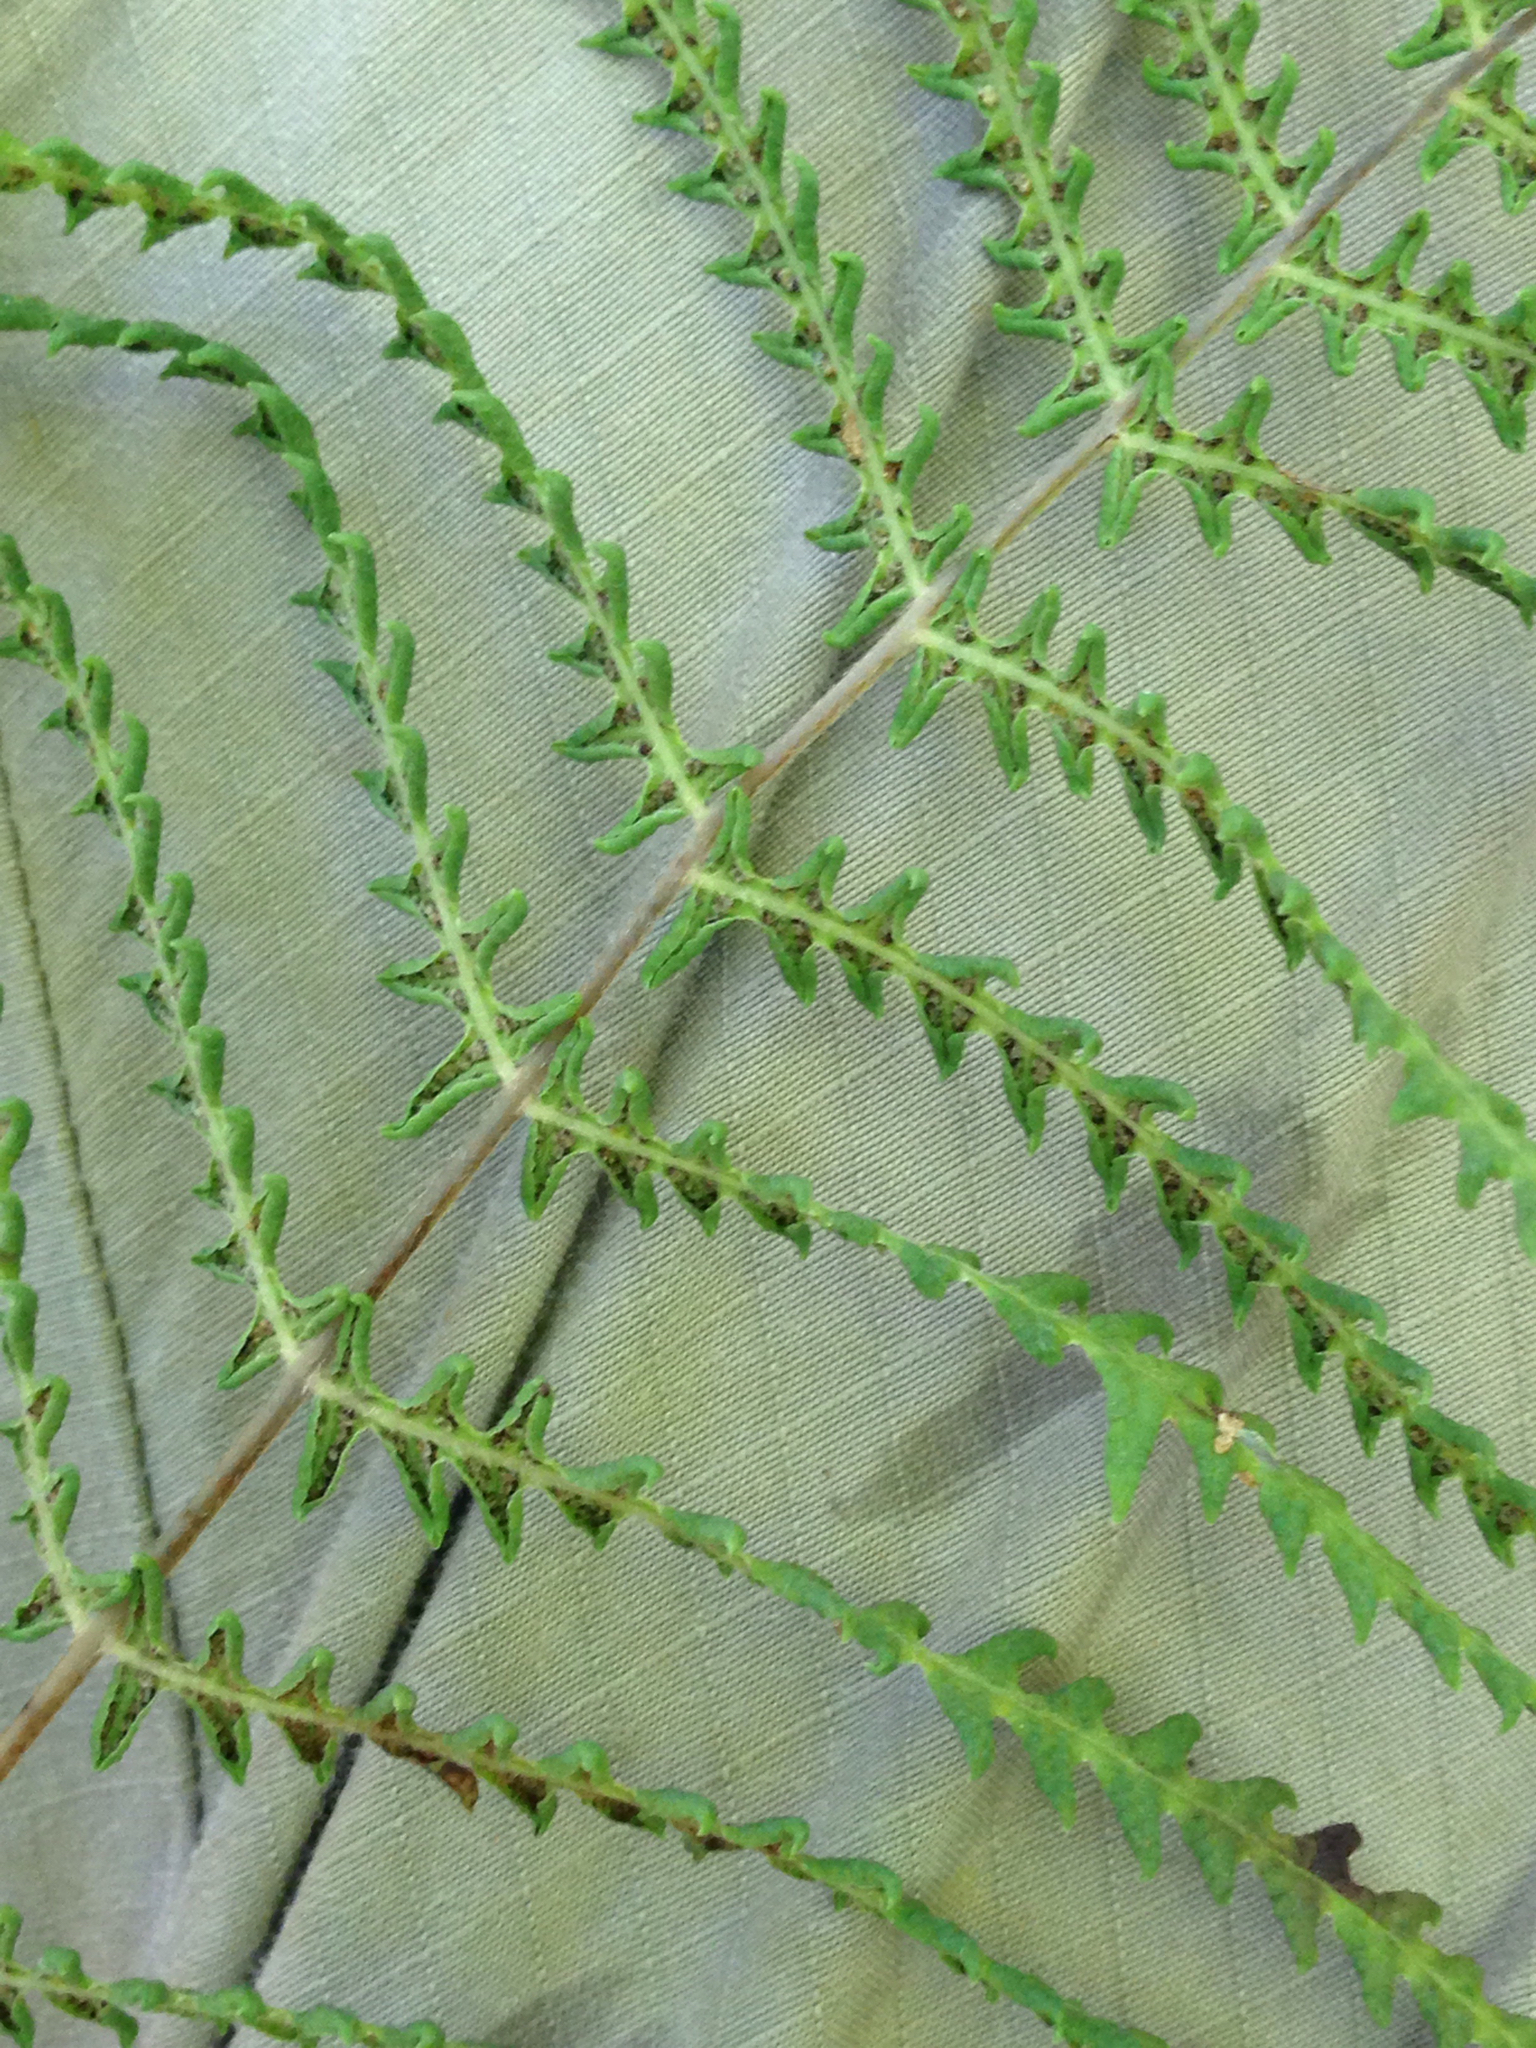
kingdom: Plantae
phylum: Tracheophyta
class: Polypodiopsida
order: Polypodiales
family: Thelypteridaceae
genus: Thelypteris
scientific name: Thelypteris palustris
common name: Marsh fern
